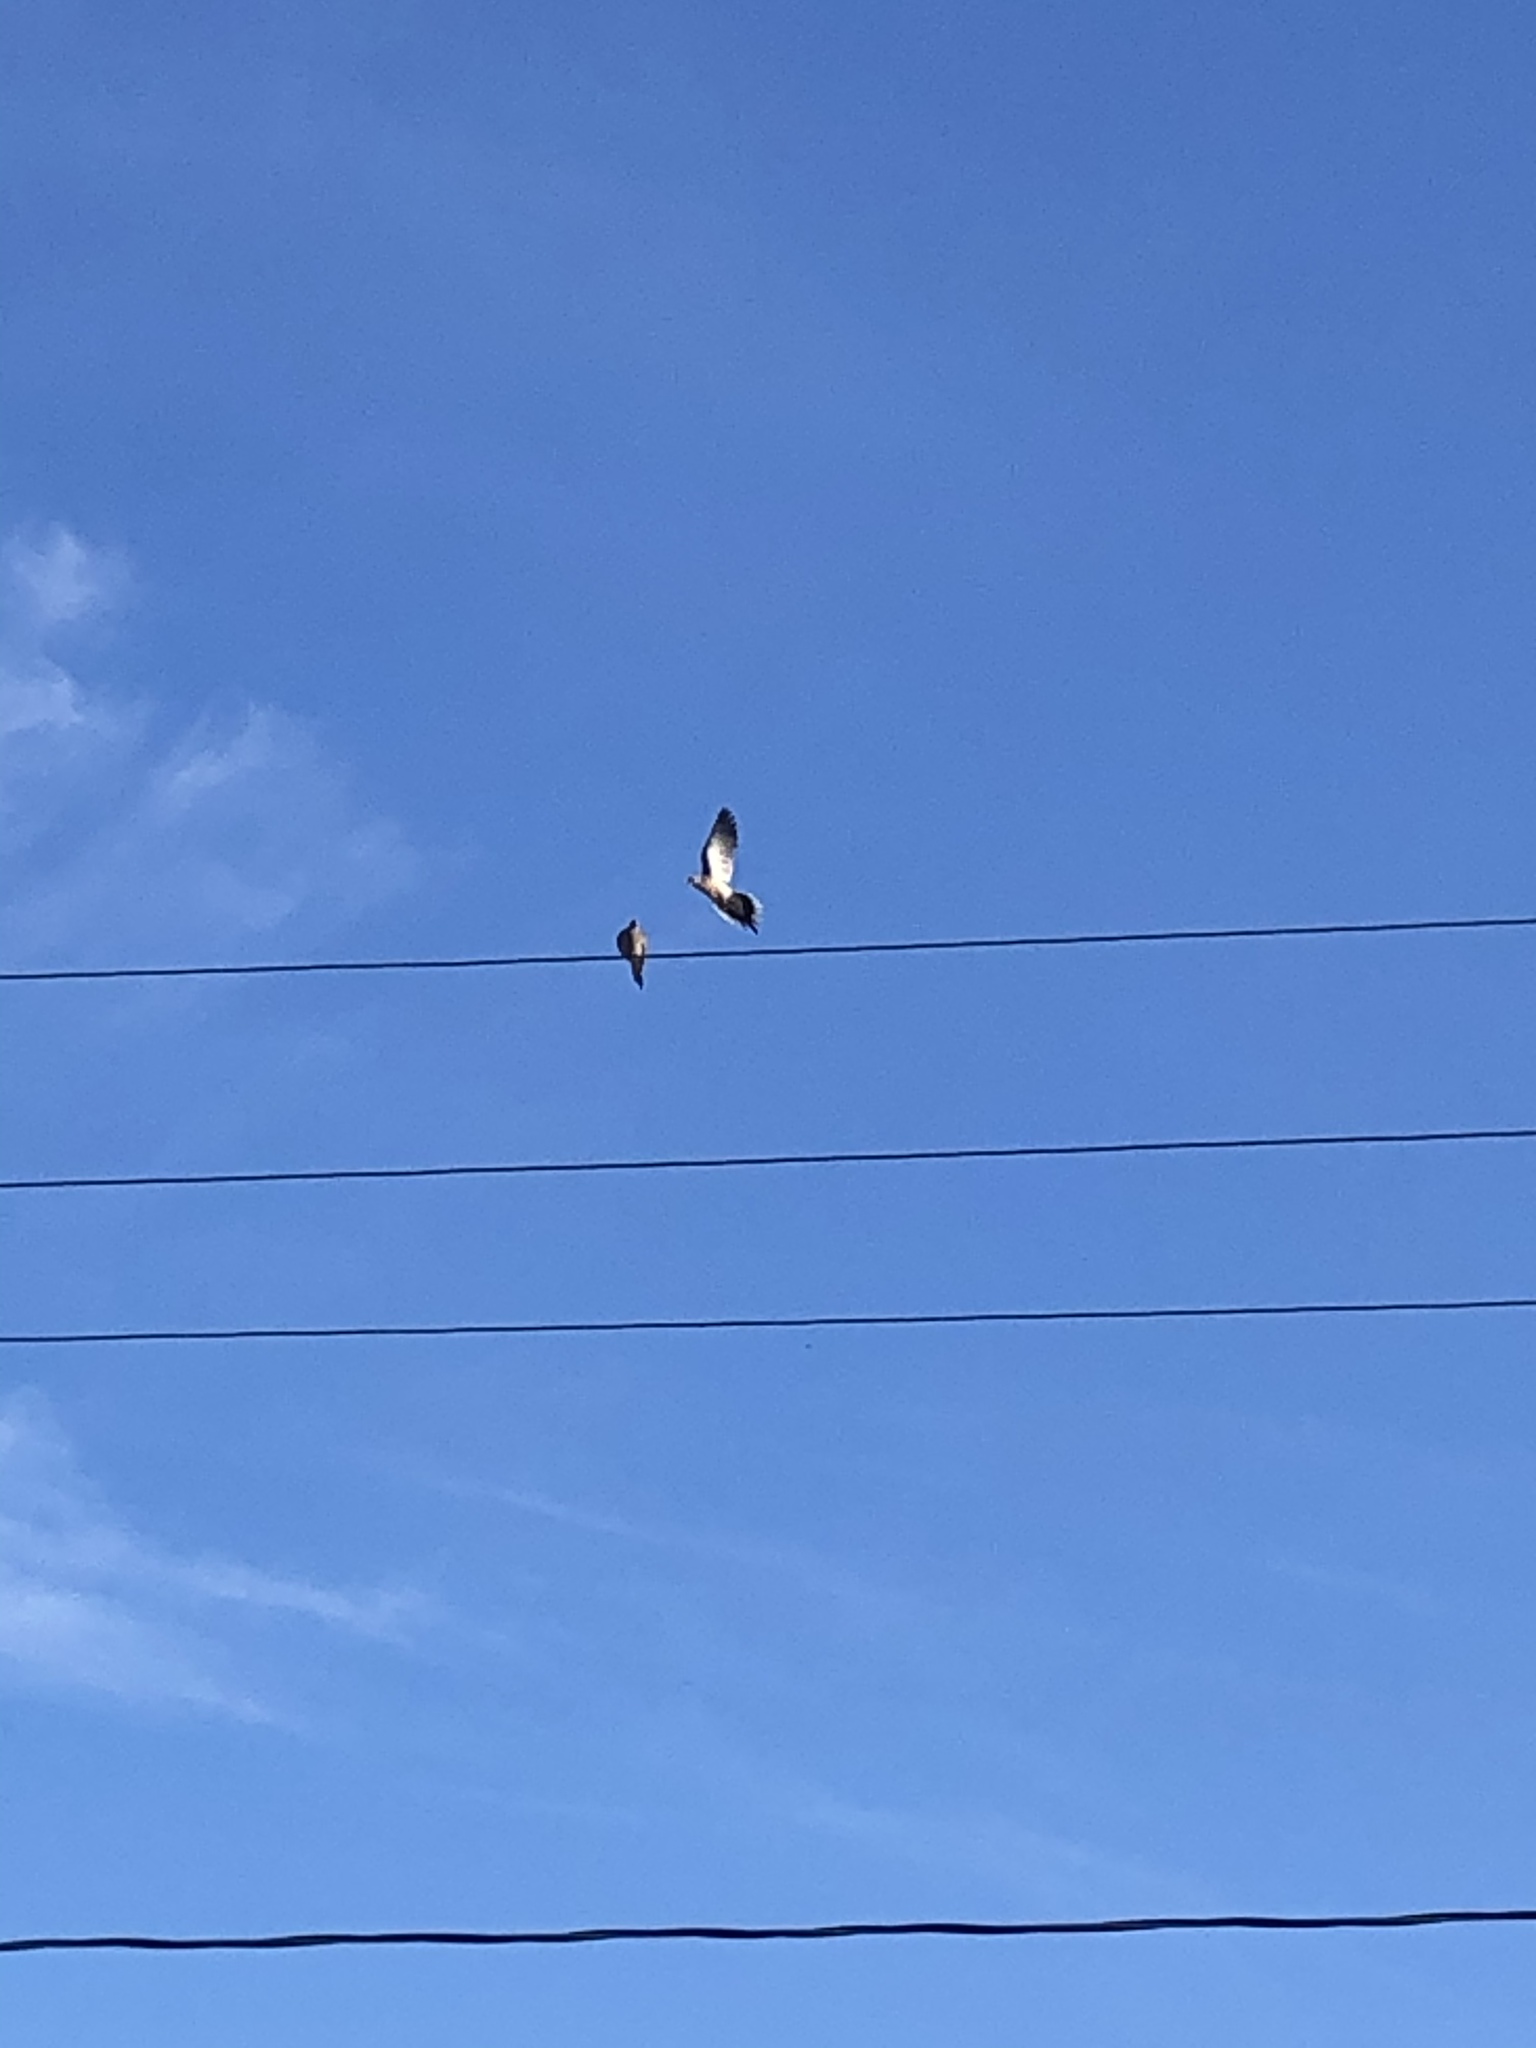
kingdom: Animalia
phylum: Chordata
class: Aves
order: Columbiformes
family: Columbidae
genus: Zenaida
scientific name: Zenaida macroura
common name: Mourning dove
